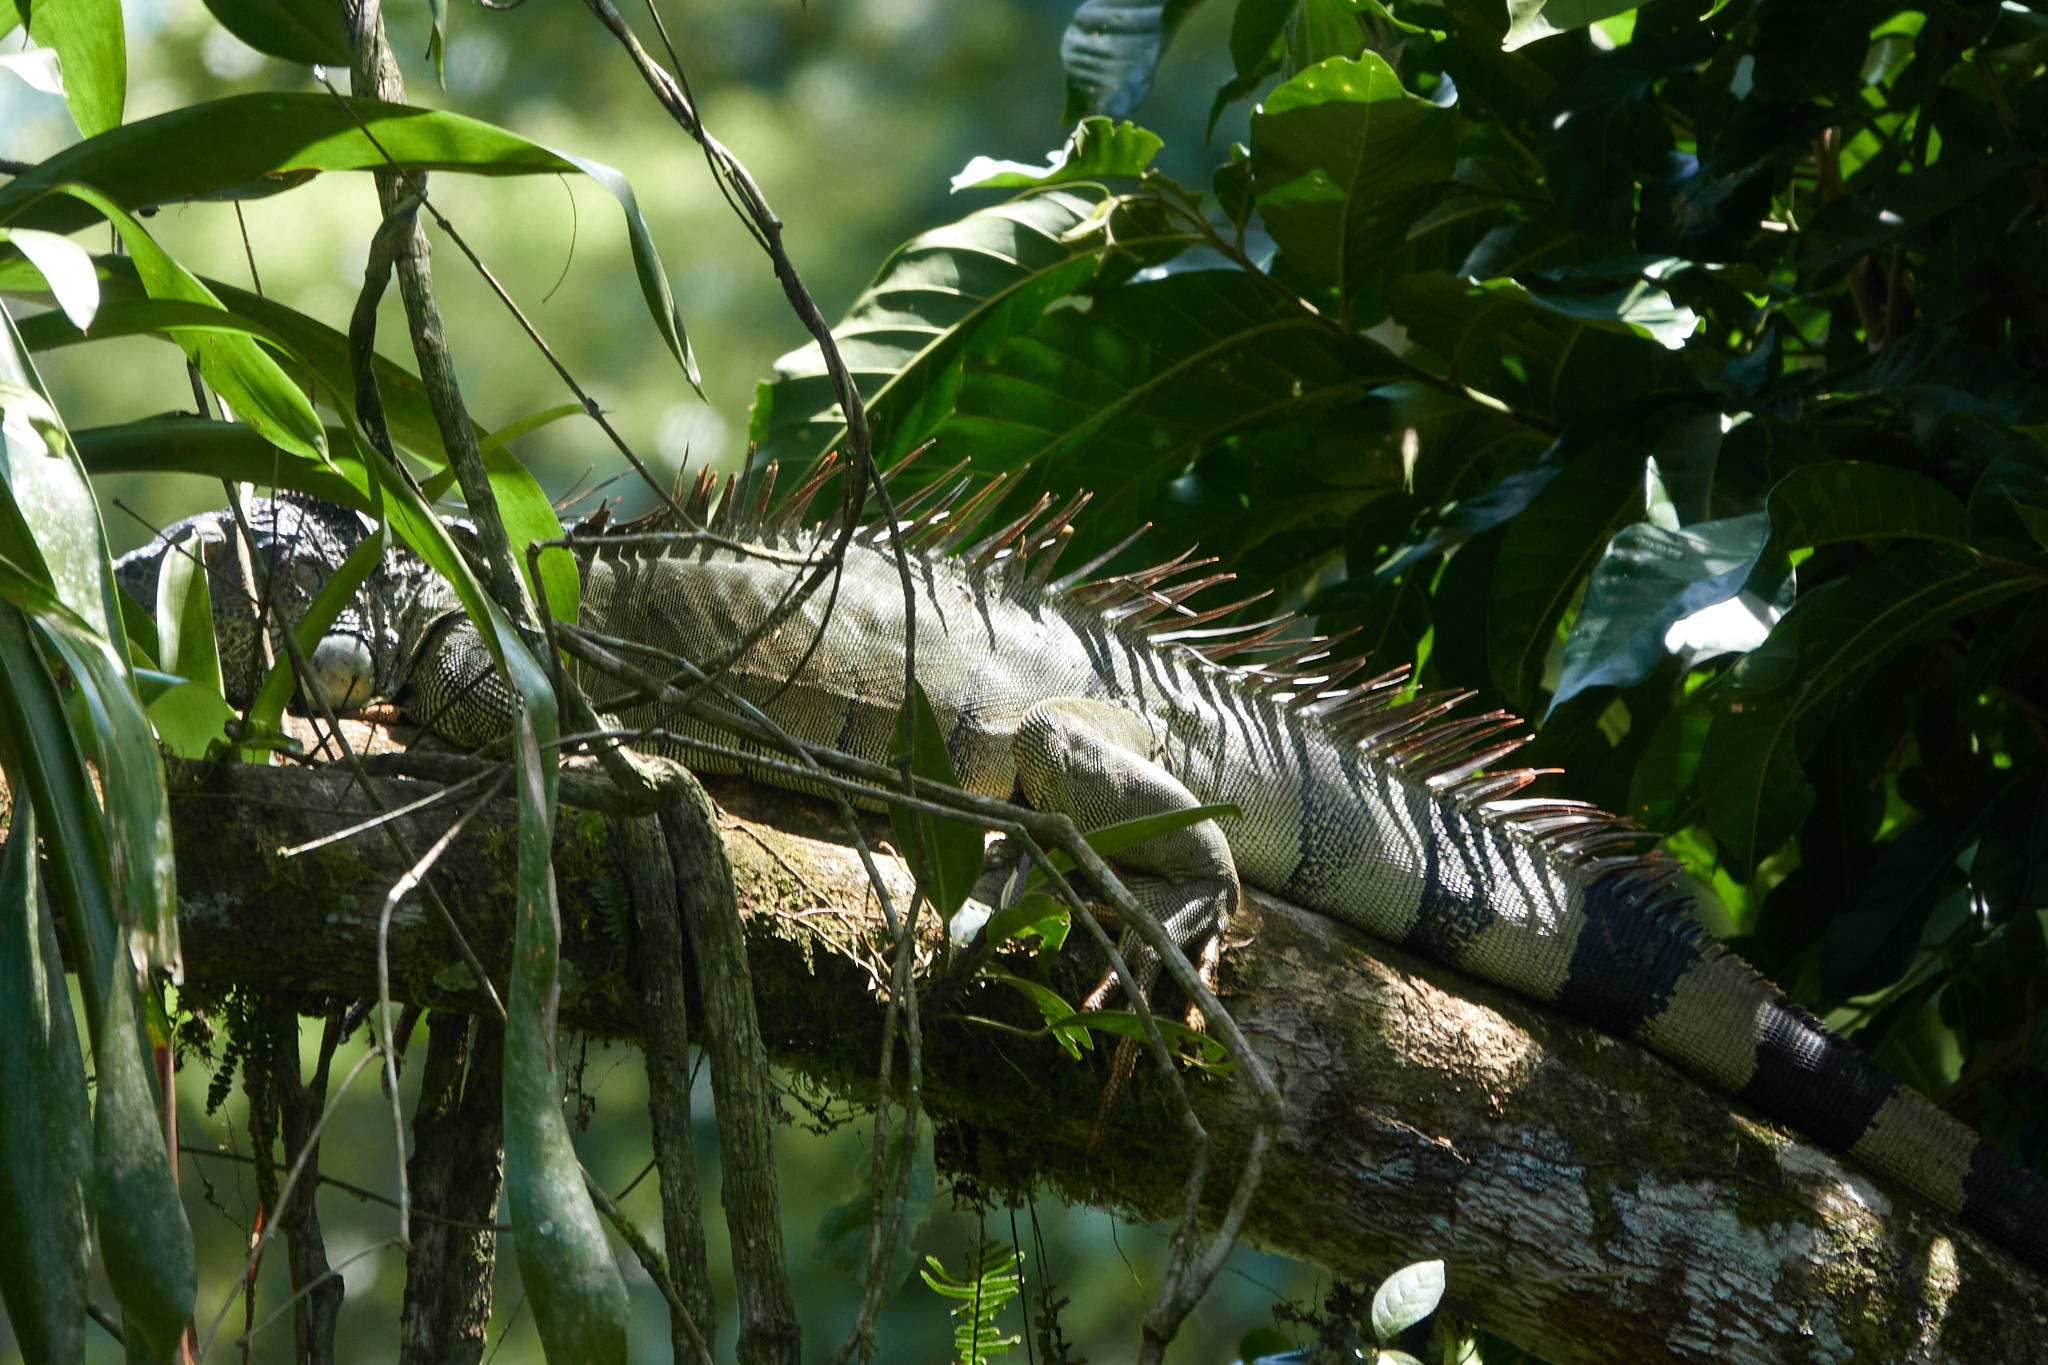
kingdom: Animalia
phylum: Chordata
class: Squamata
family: Iguanidae
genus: Iguana
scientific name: Iguana iguana
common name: Green iguana
